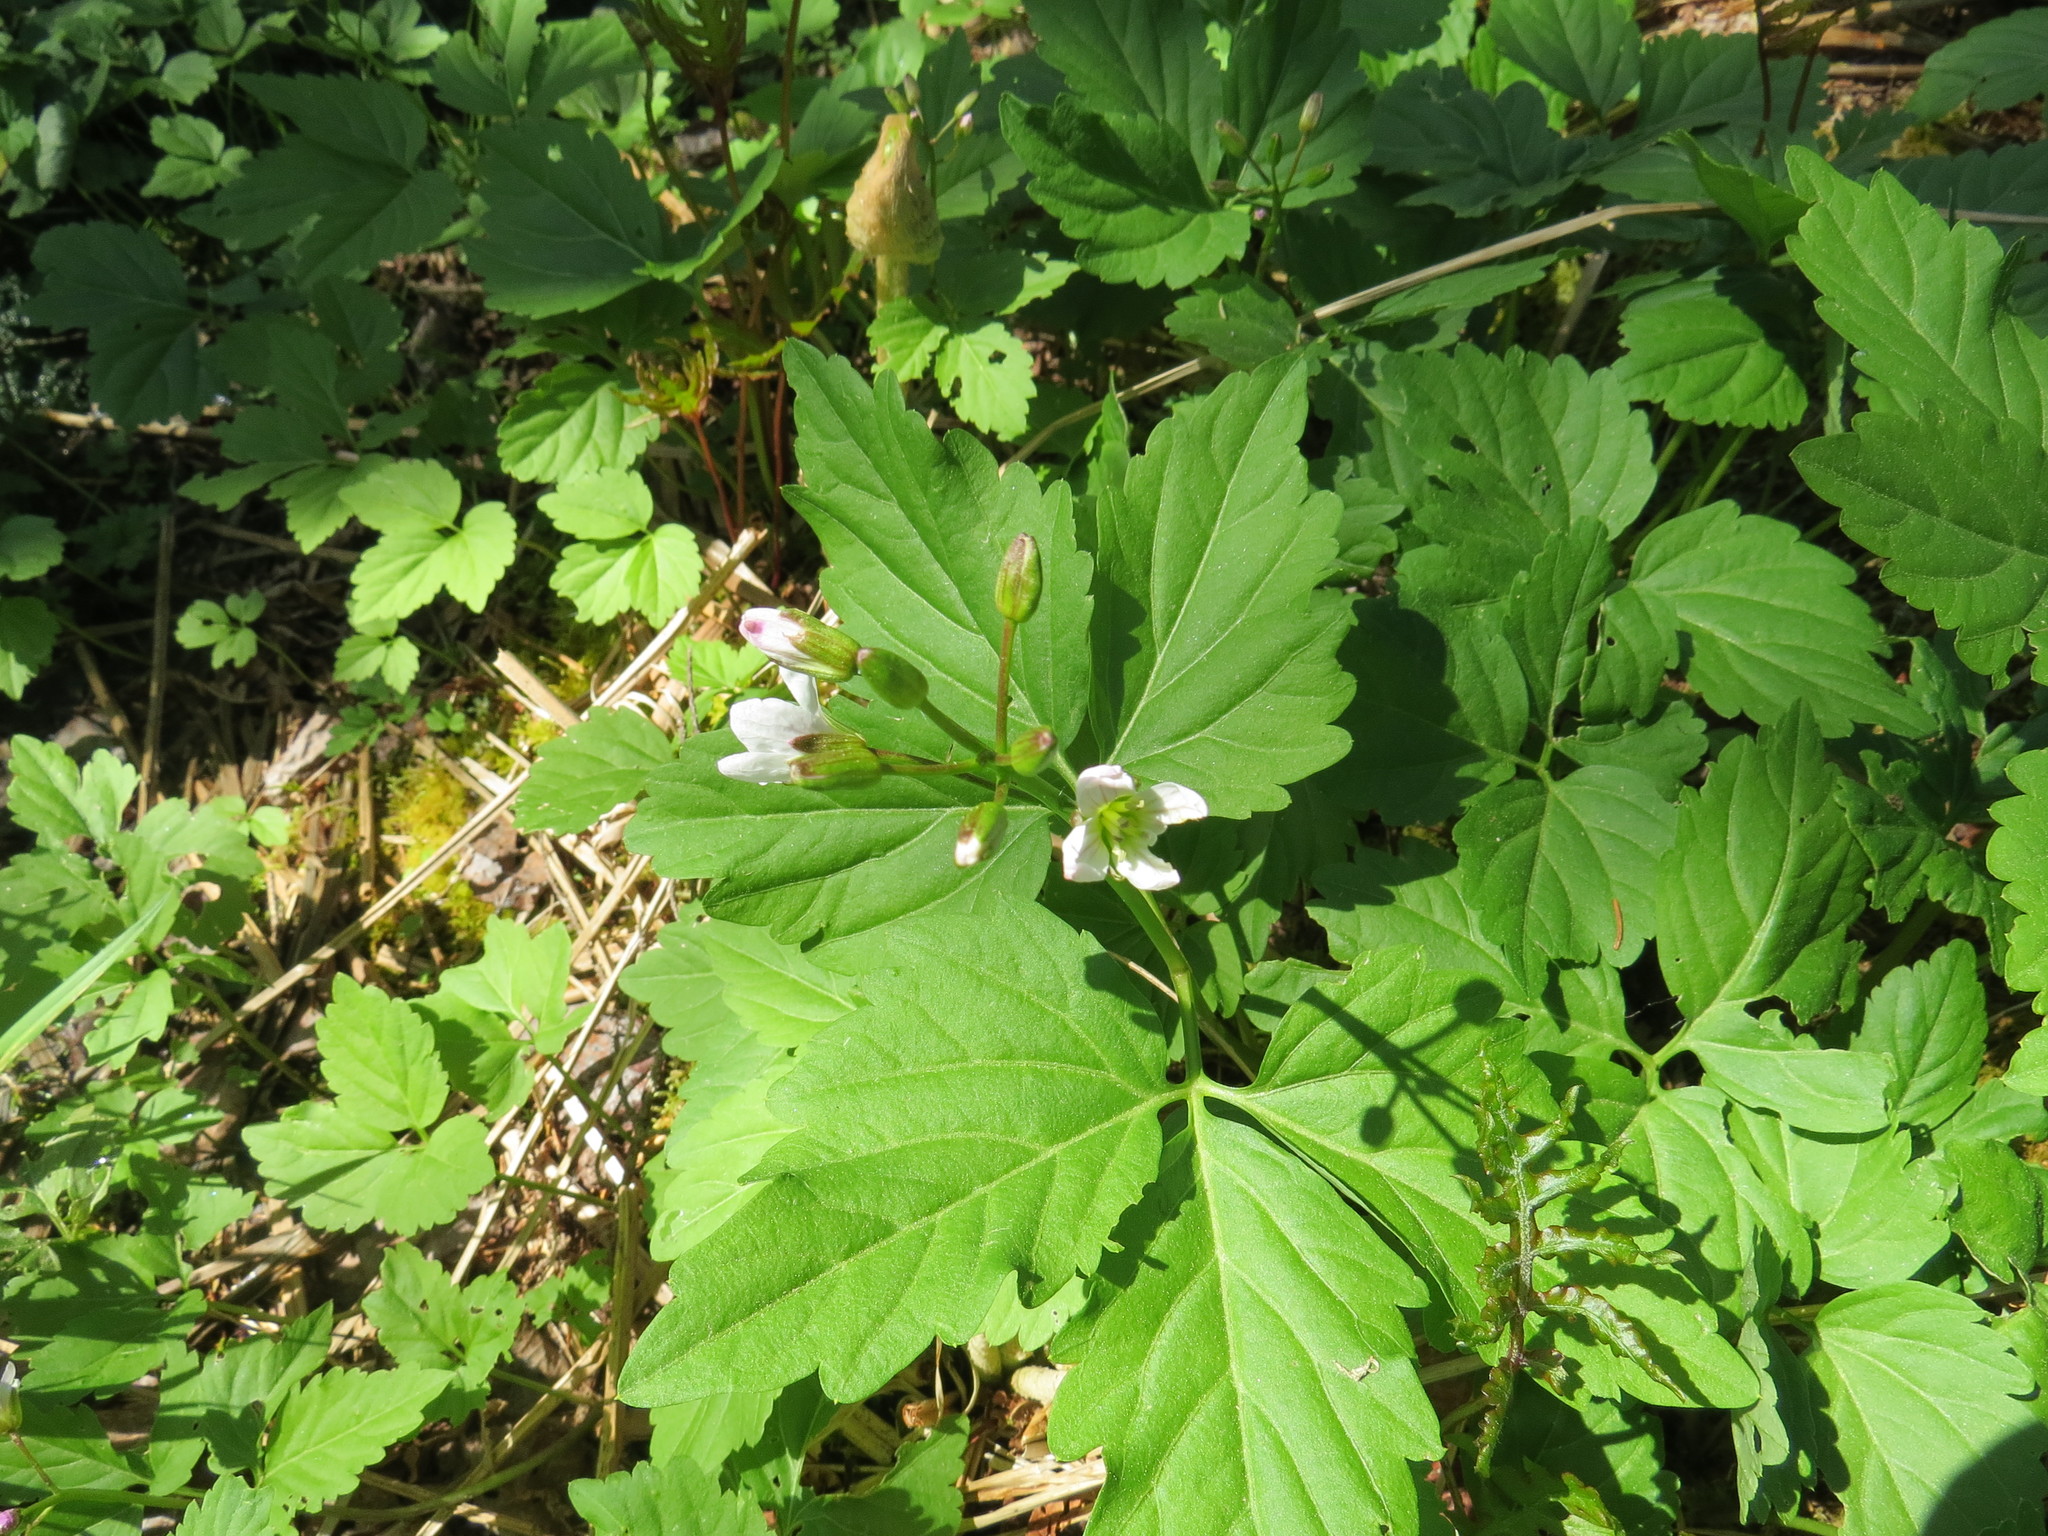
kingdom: Plantae
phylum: Tracheophyta
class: Magnoliopsida
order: Brassicales
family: Brassicaceae
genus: Cardamine
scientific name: Cardamine diphylla
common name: Broad-leaved toothwort
